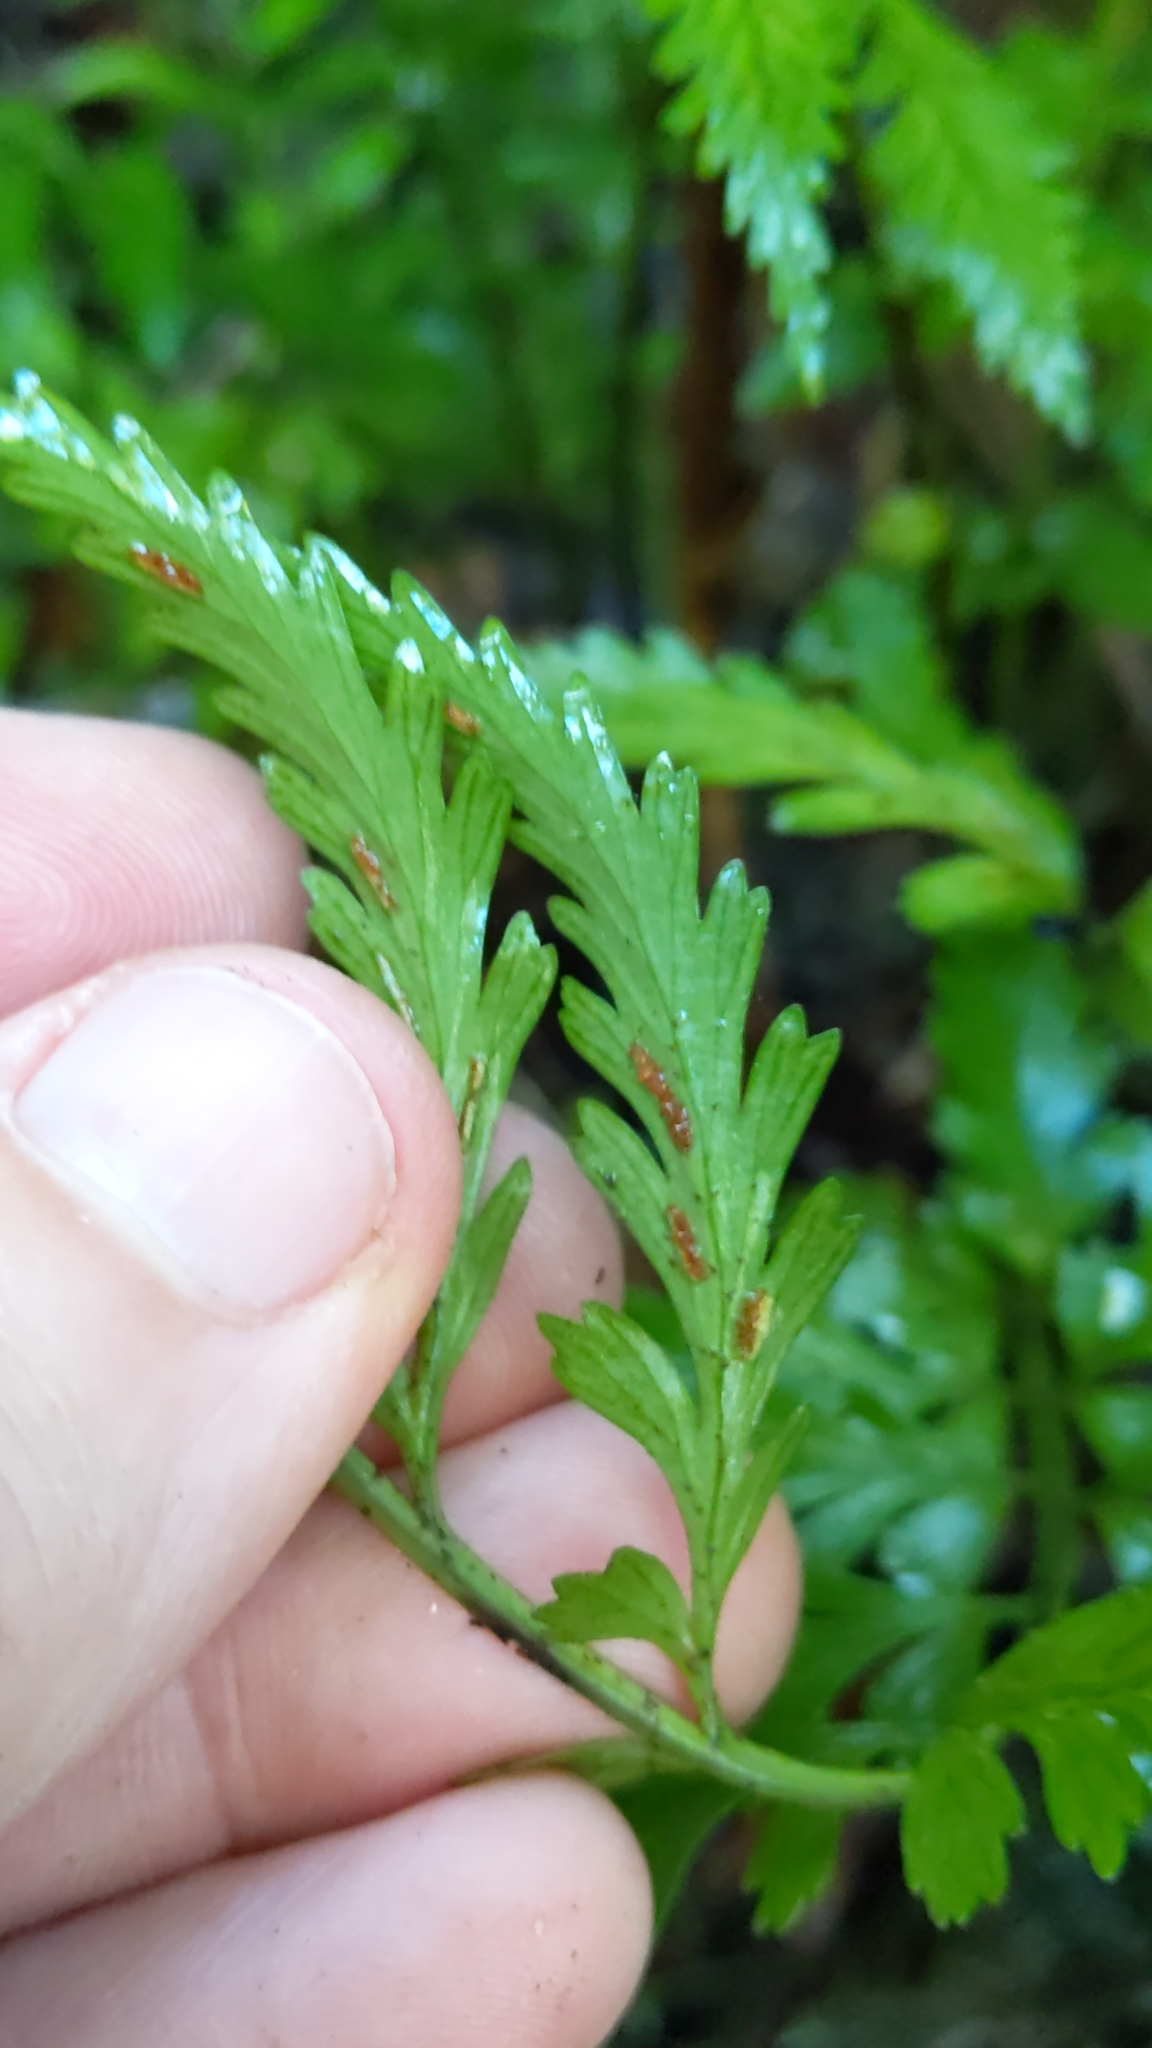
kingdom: Plantae
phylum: Tracheophyta
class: Polypodiopsida
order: Polypodiales
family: Aspleniaceae
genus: Asplenium
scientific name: Asplenium lamprophyllum
